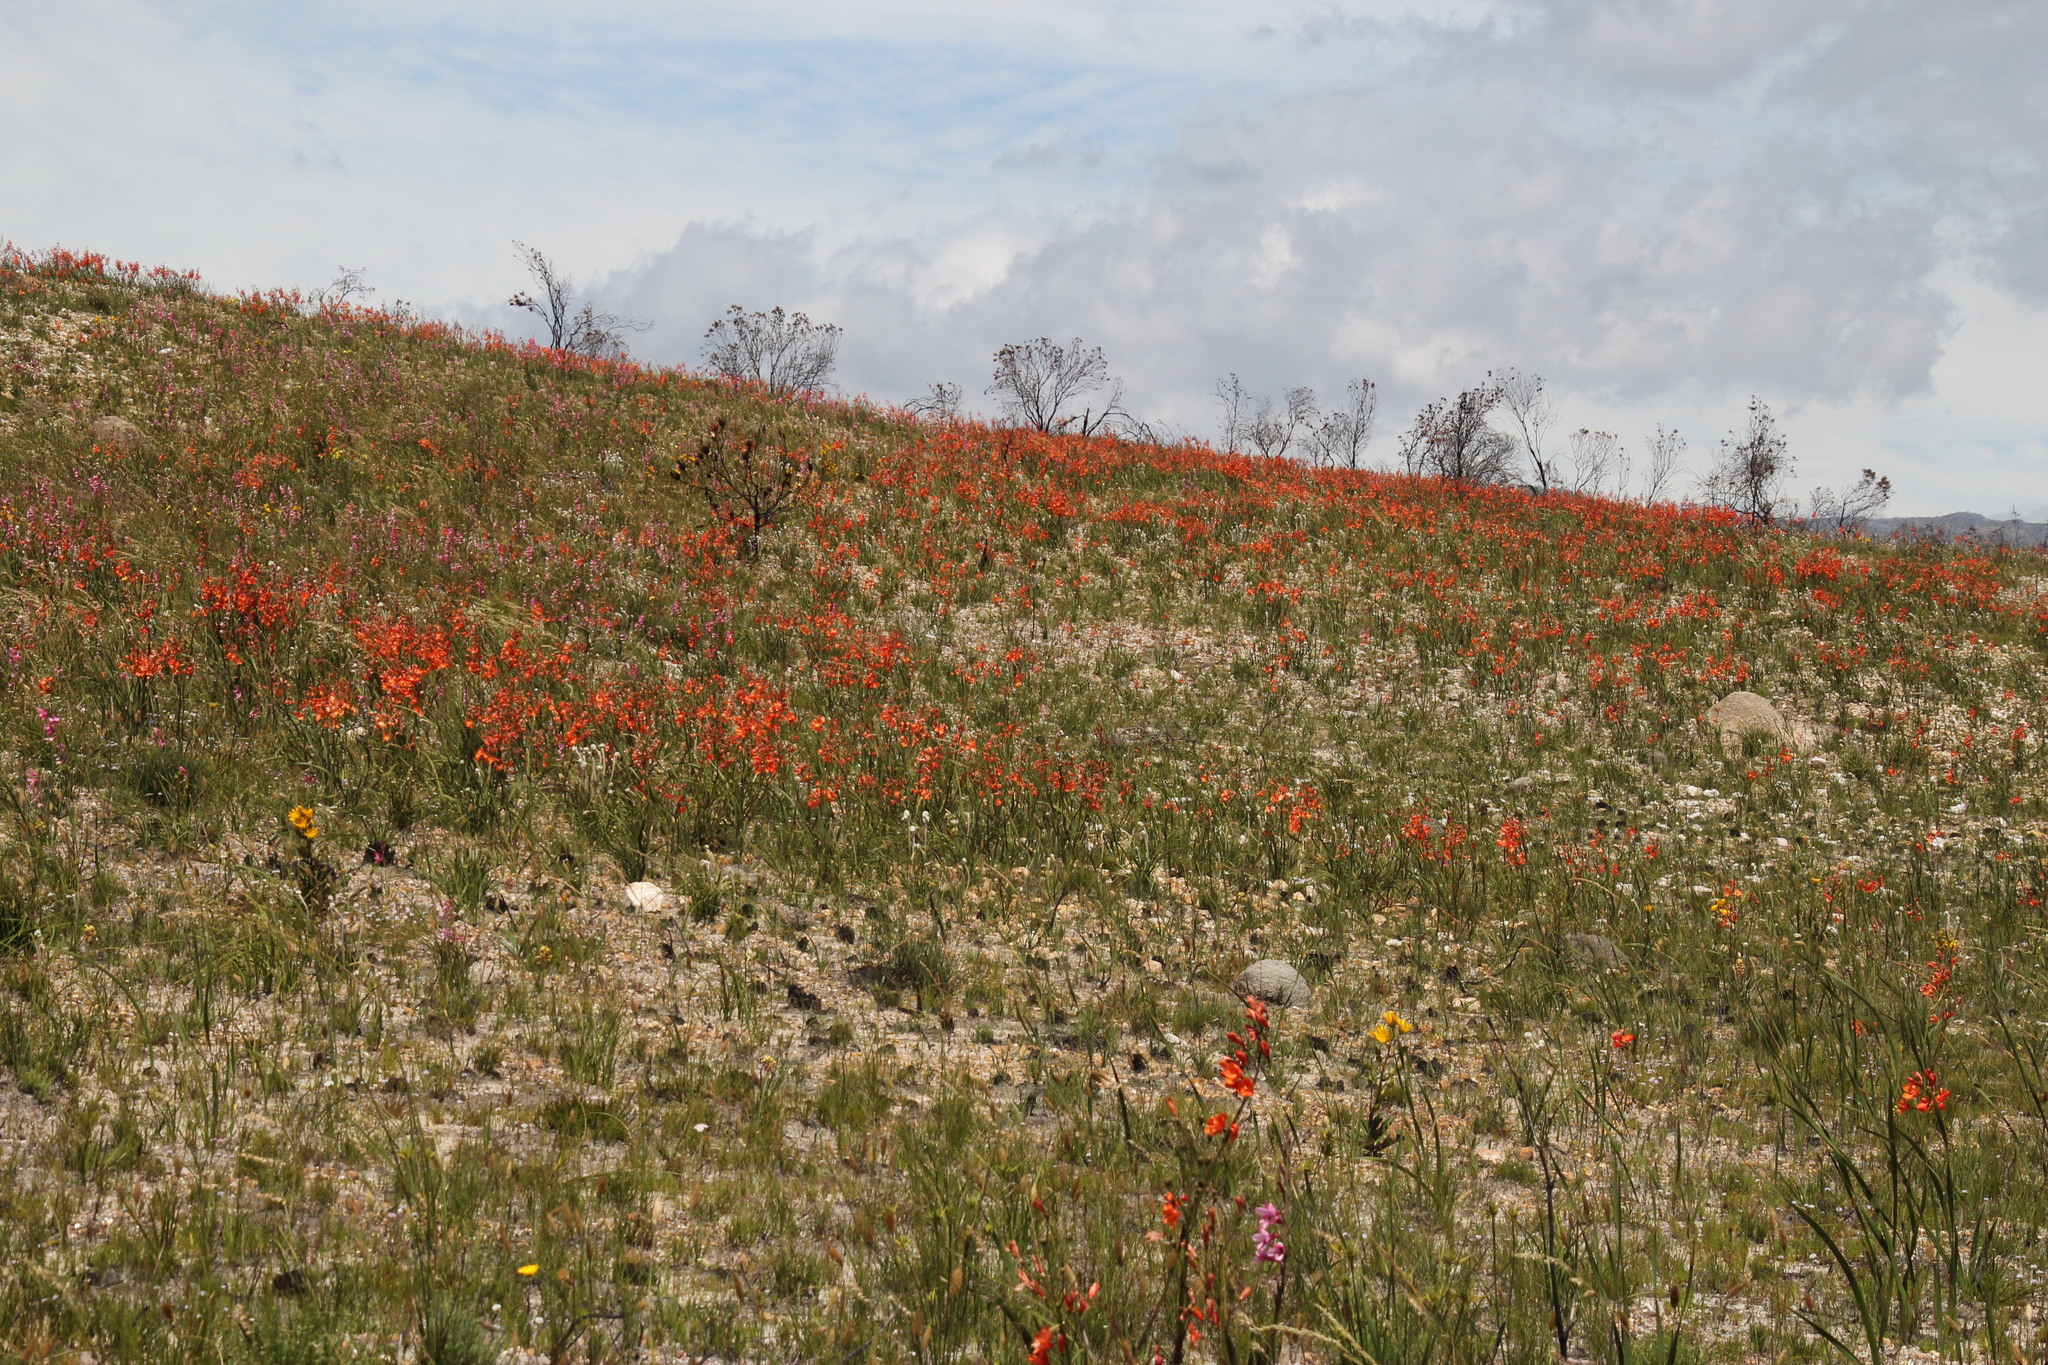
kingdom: Plantae
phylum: Tracheophyta
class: Liliopsida
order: Asparagales
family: Iridaceae
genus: Pillansia
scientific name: Pillansia templemannii
